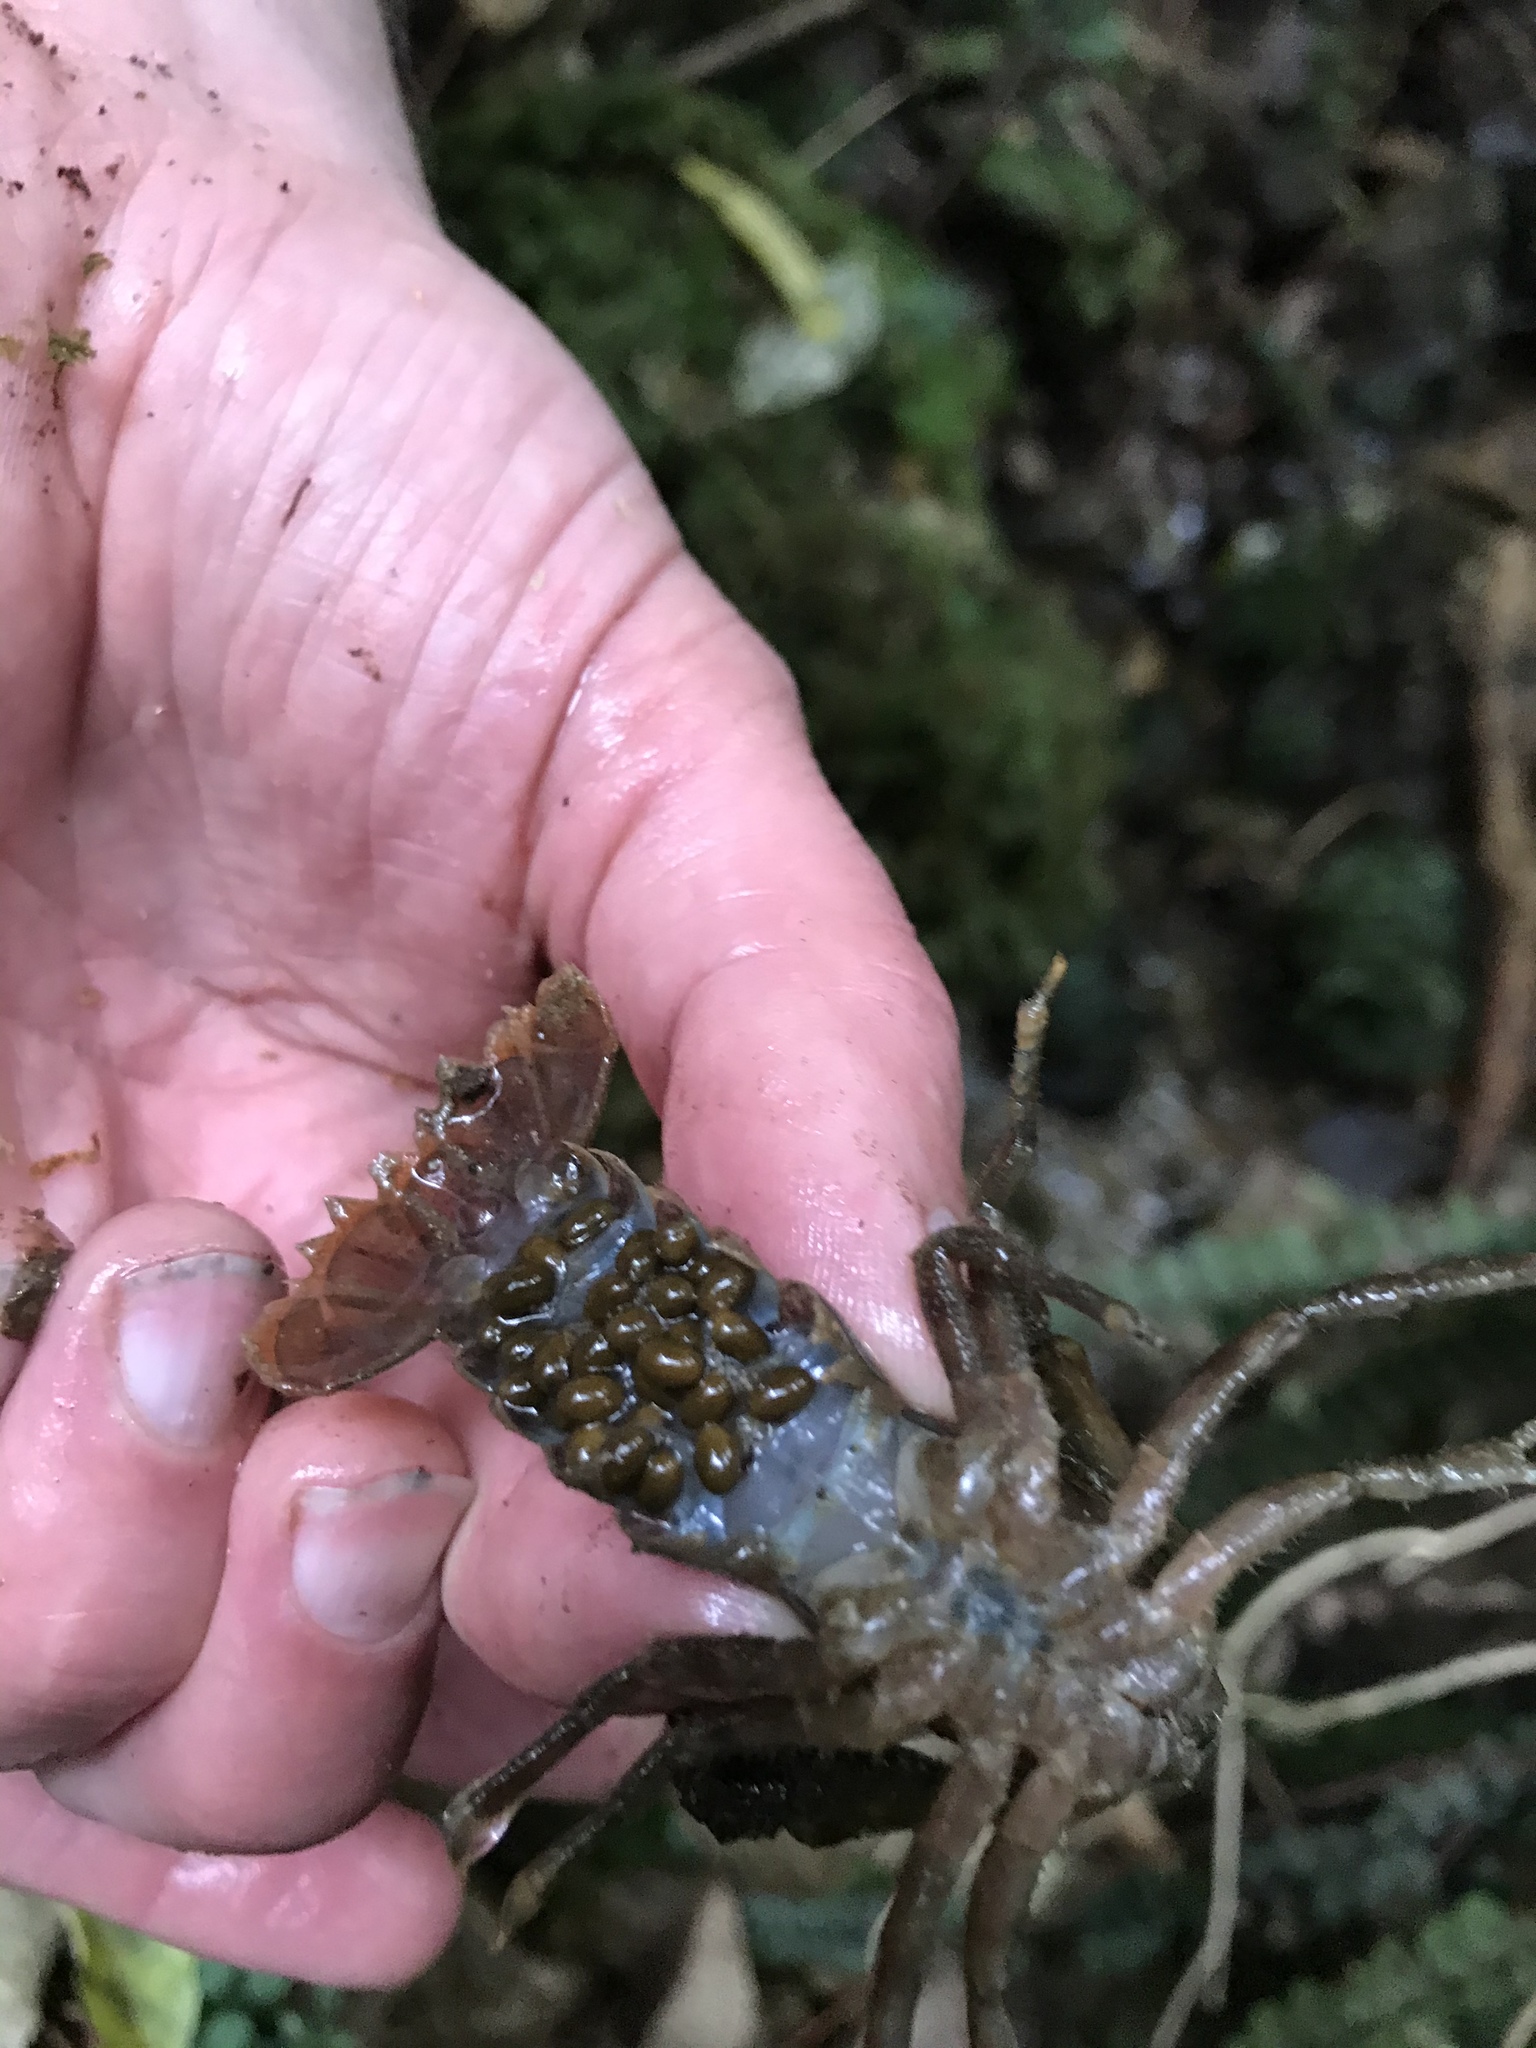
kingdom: Animalia
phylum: Arthropoda
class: Malacostraca
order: Decapoda
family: Parastacidae
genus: Paranephrops
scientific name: Paranephrops planifrons
